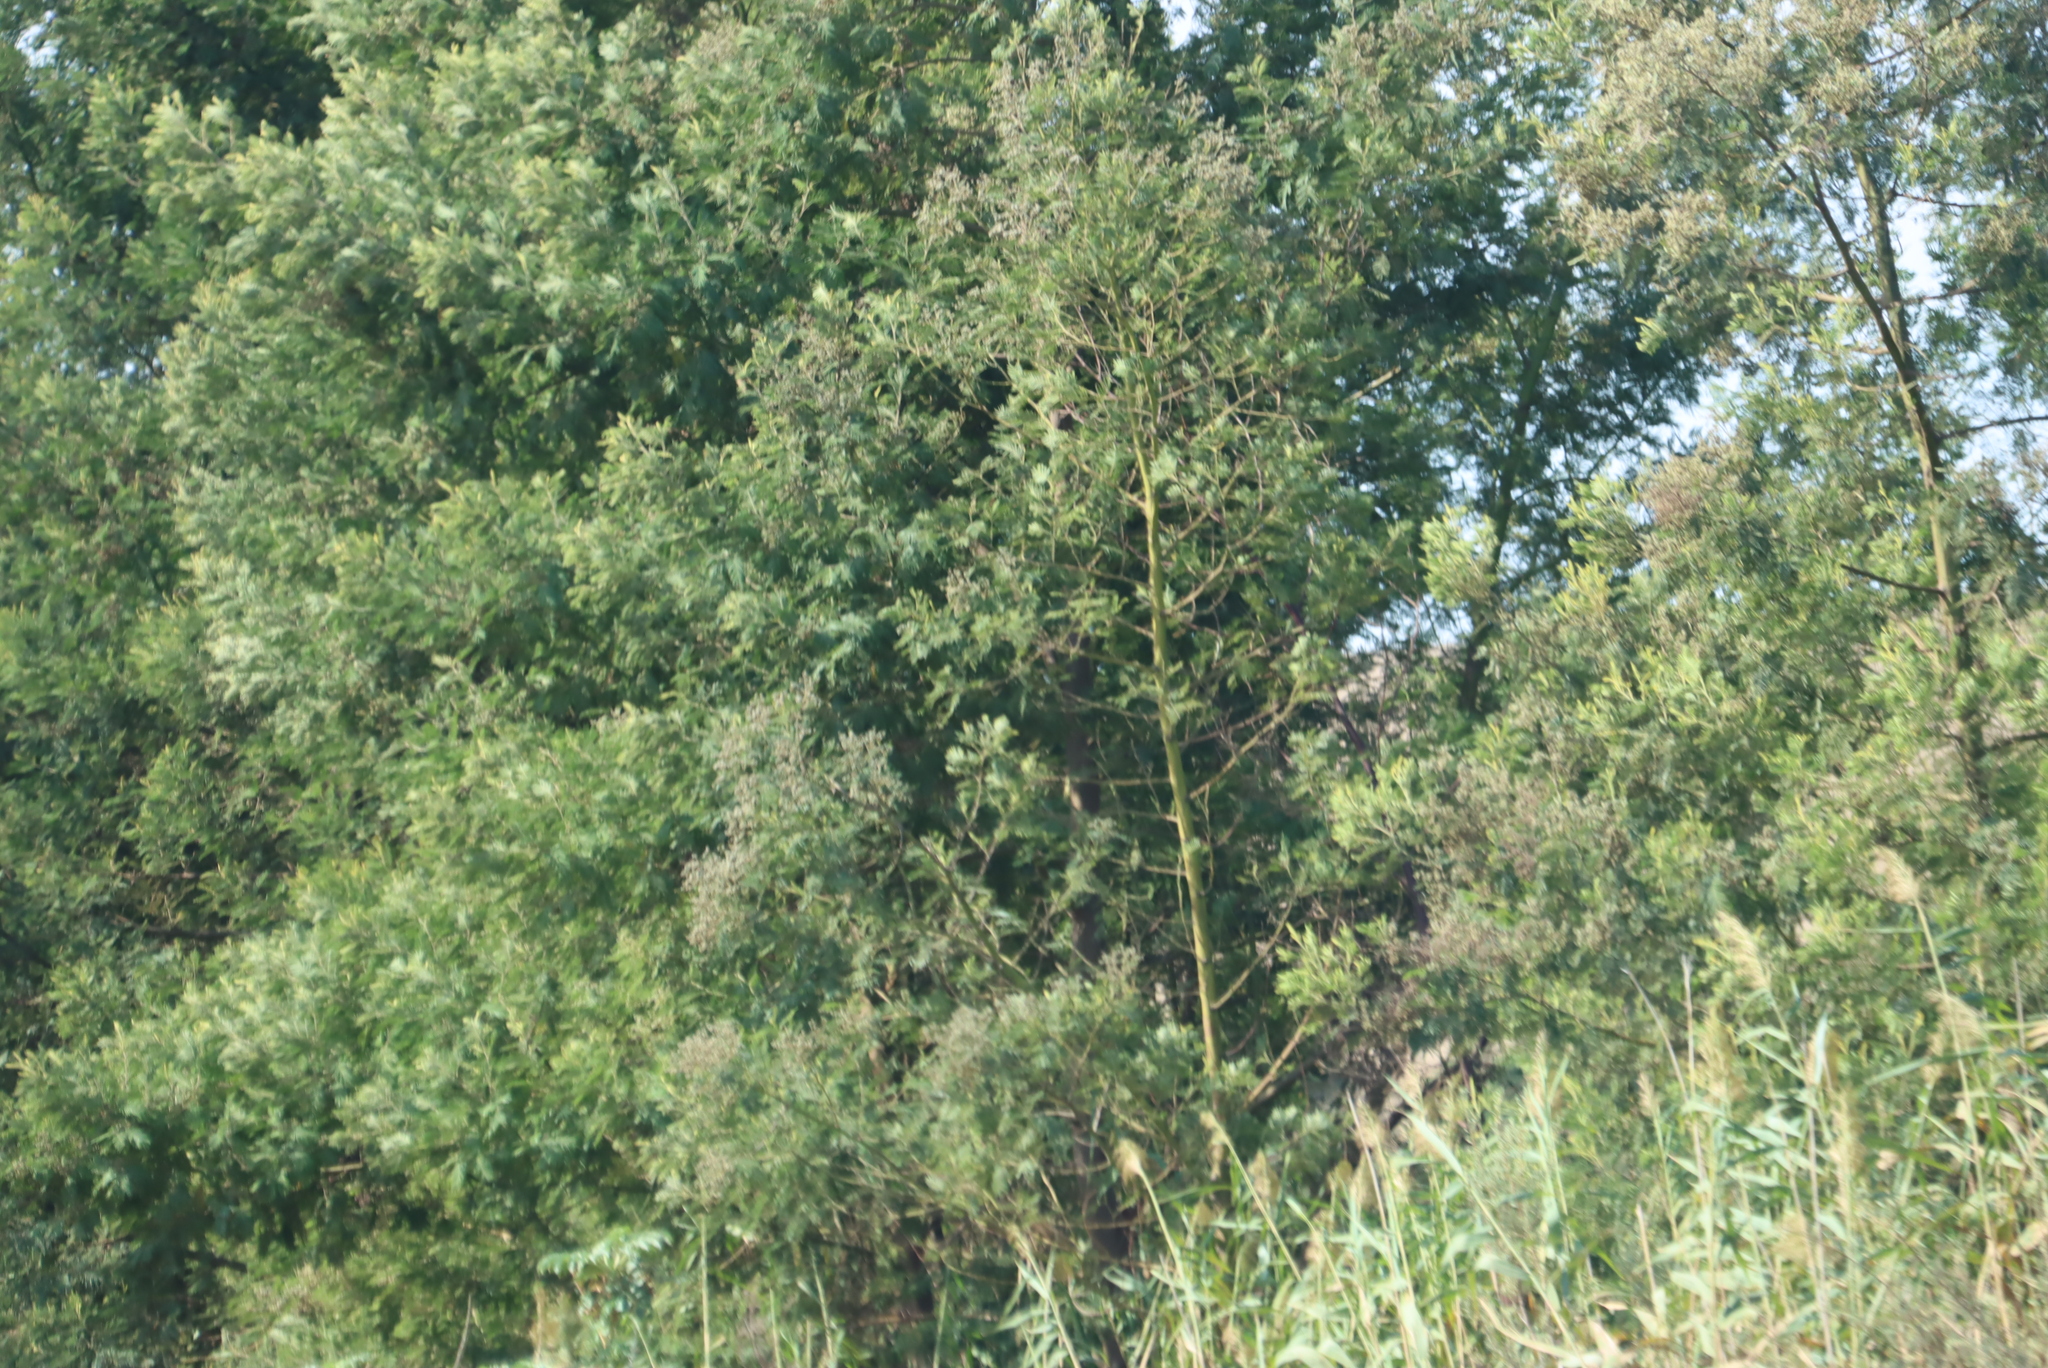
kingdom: Plantae
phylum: Tracheophyta
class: Magnoliopsida
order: Fabales
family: Fabaceae
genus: Acacia
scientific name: Acacia mearnsii
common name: Black wattle
